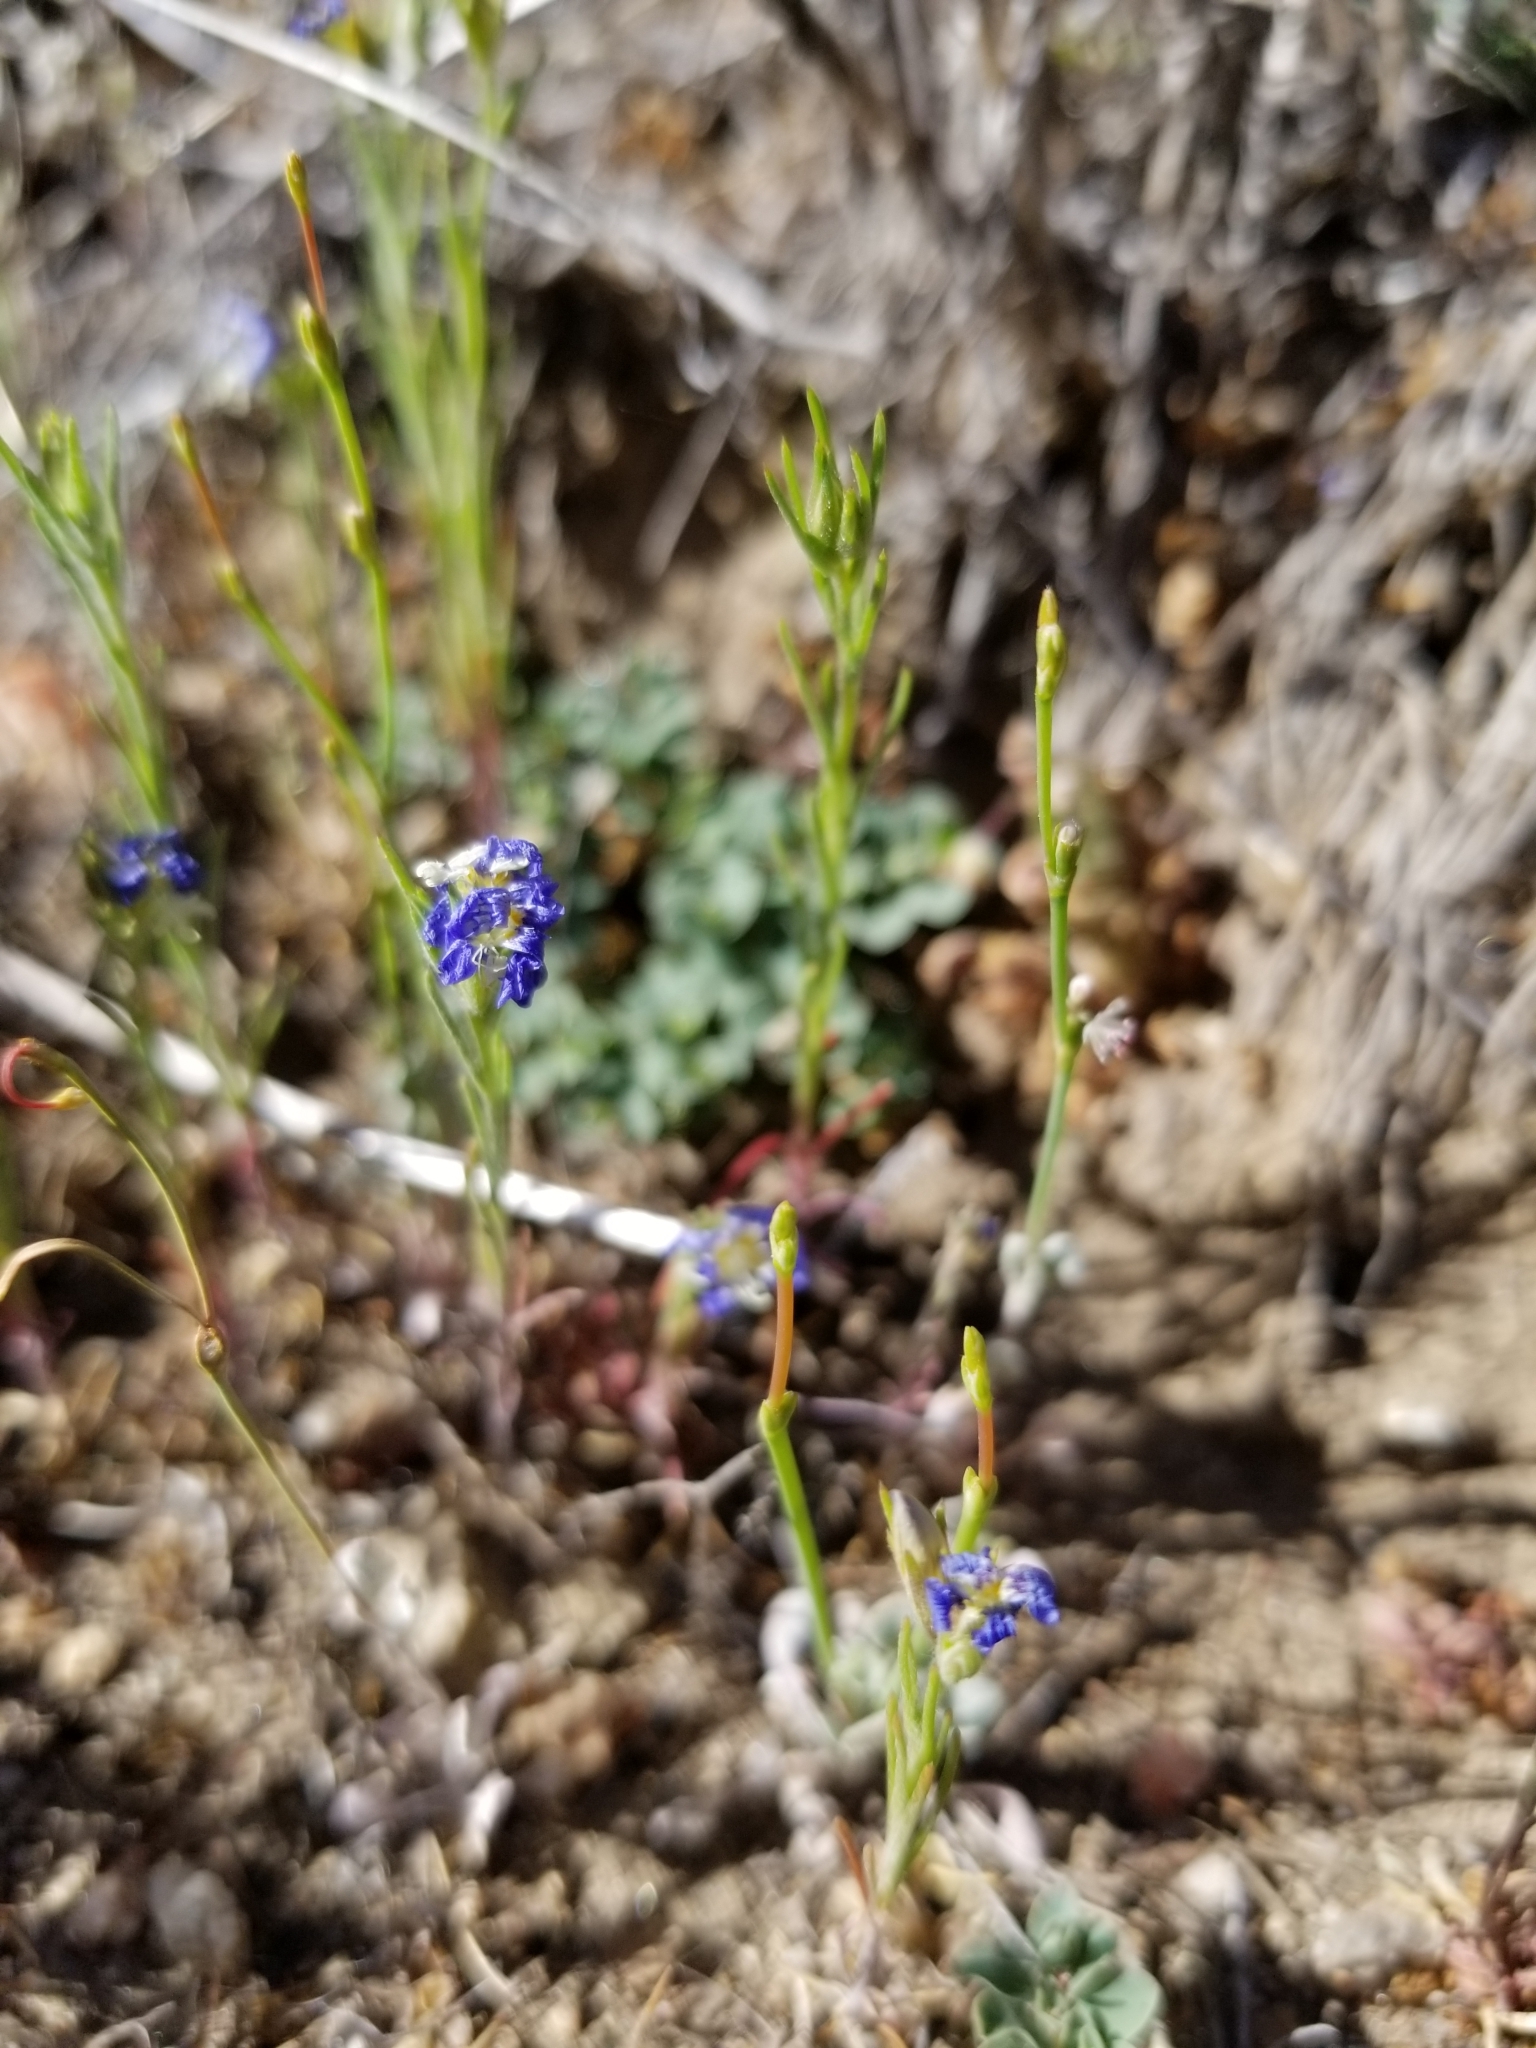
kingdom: Plantae
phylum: Tracheophyta
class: Magnoliopsida
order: Ericales
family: Polemoniaceae
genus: Eriastrum
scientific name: Eriastrum sapphirinum
